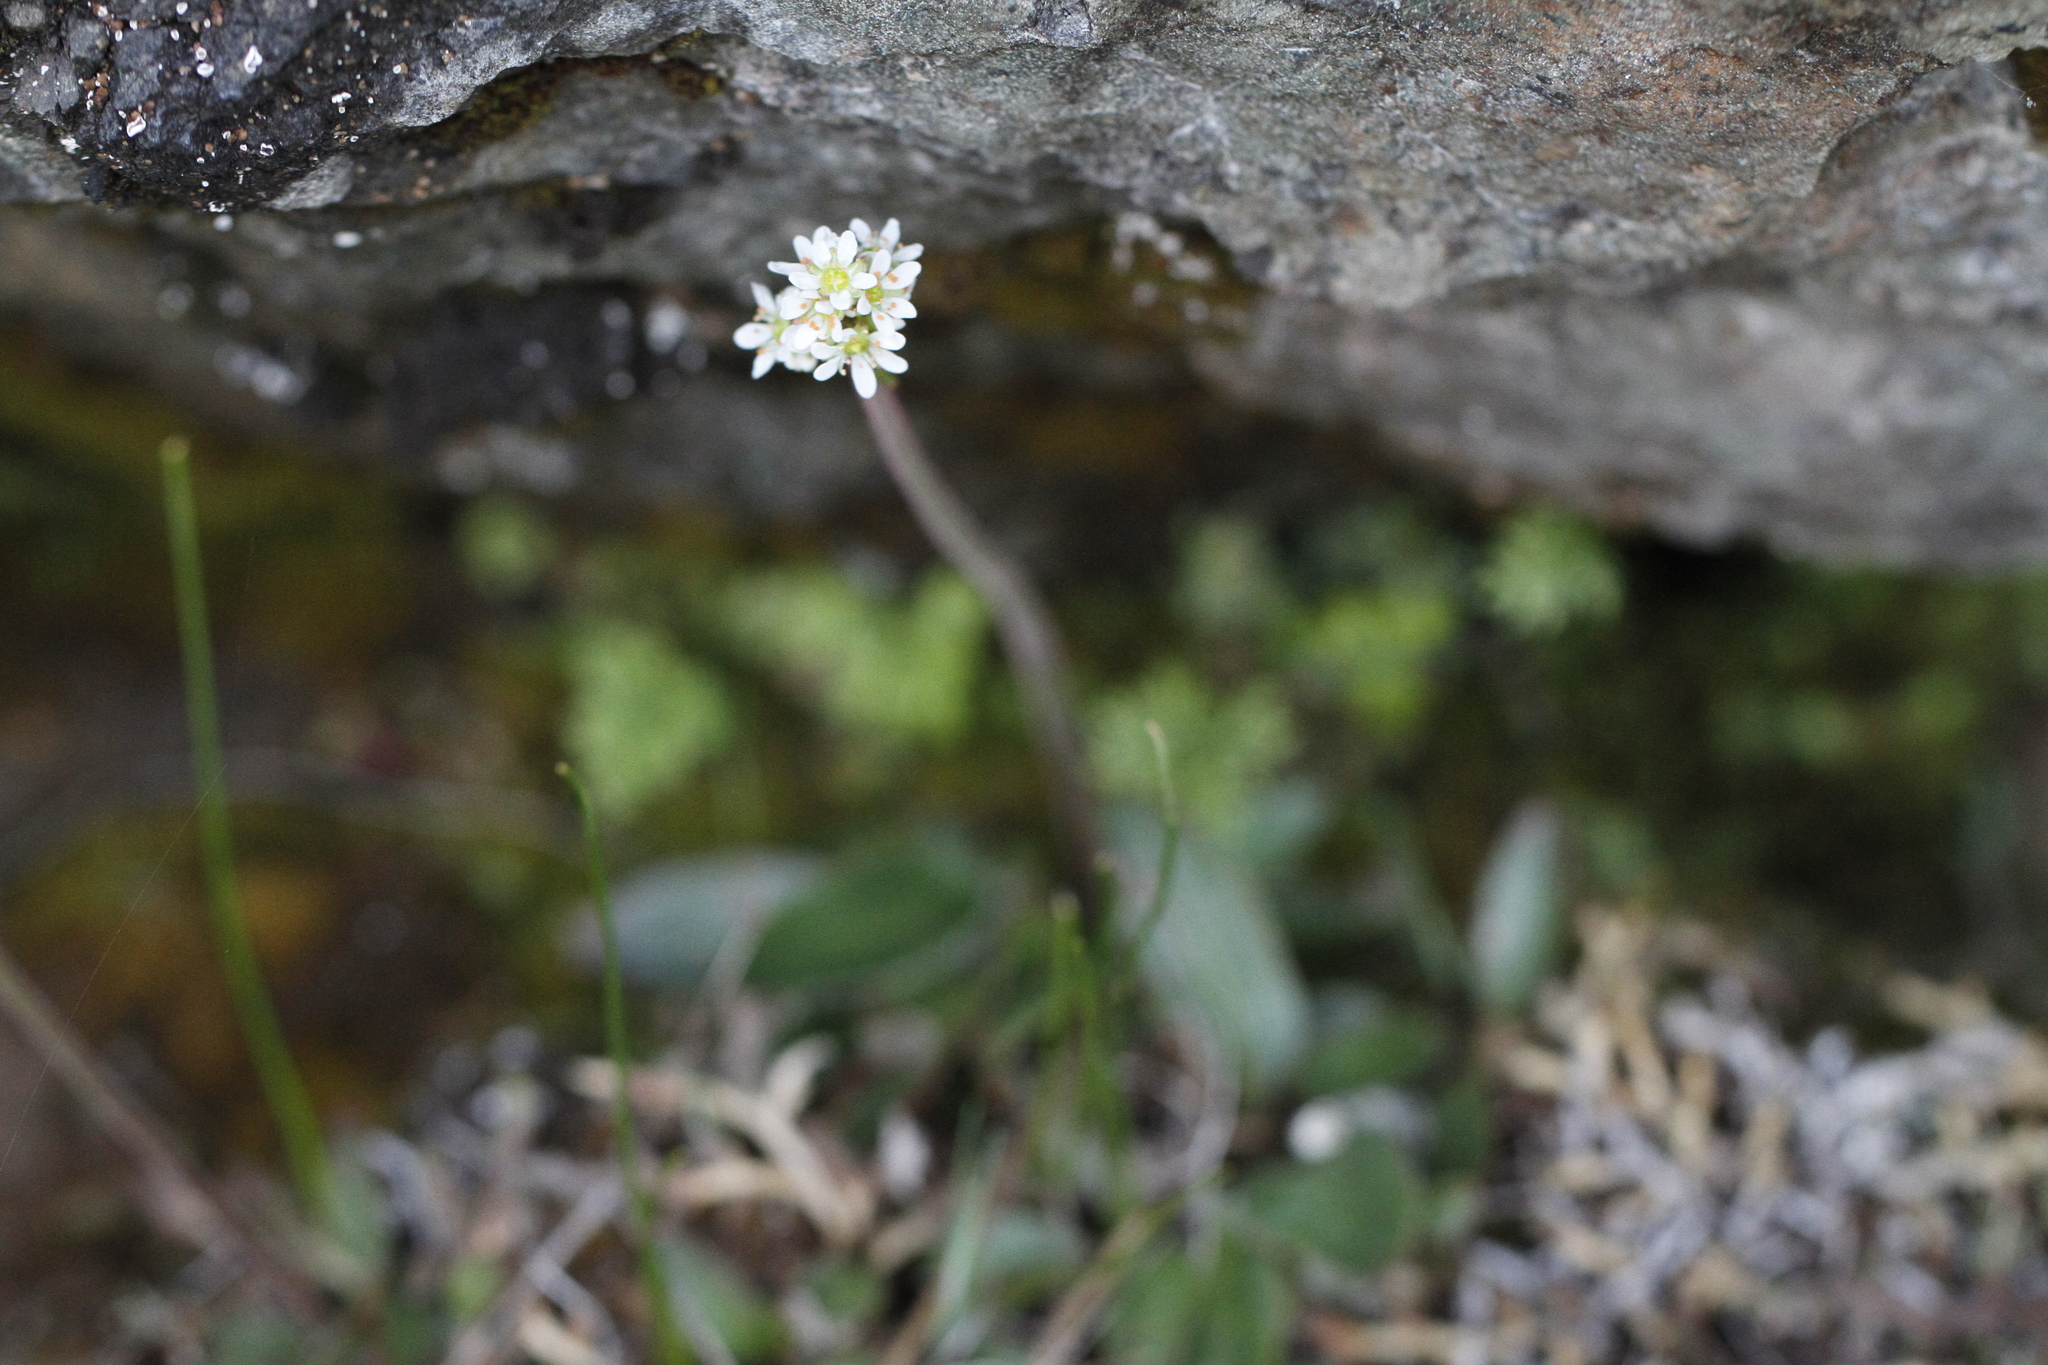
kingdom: Plantae
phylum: Tracheophyta
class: Magnoliopsida
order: Saxifragales
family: Saxifragaceae
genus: Micranthes
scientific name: Micranthes integrifolia
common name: Wholeleaf saxifrage
